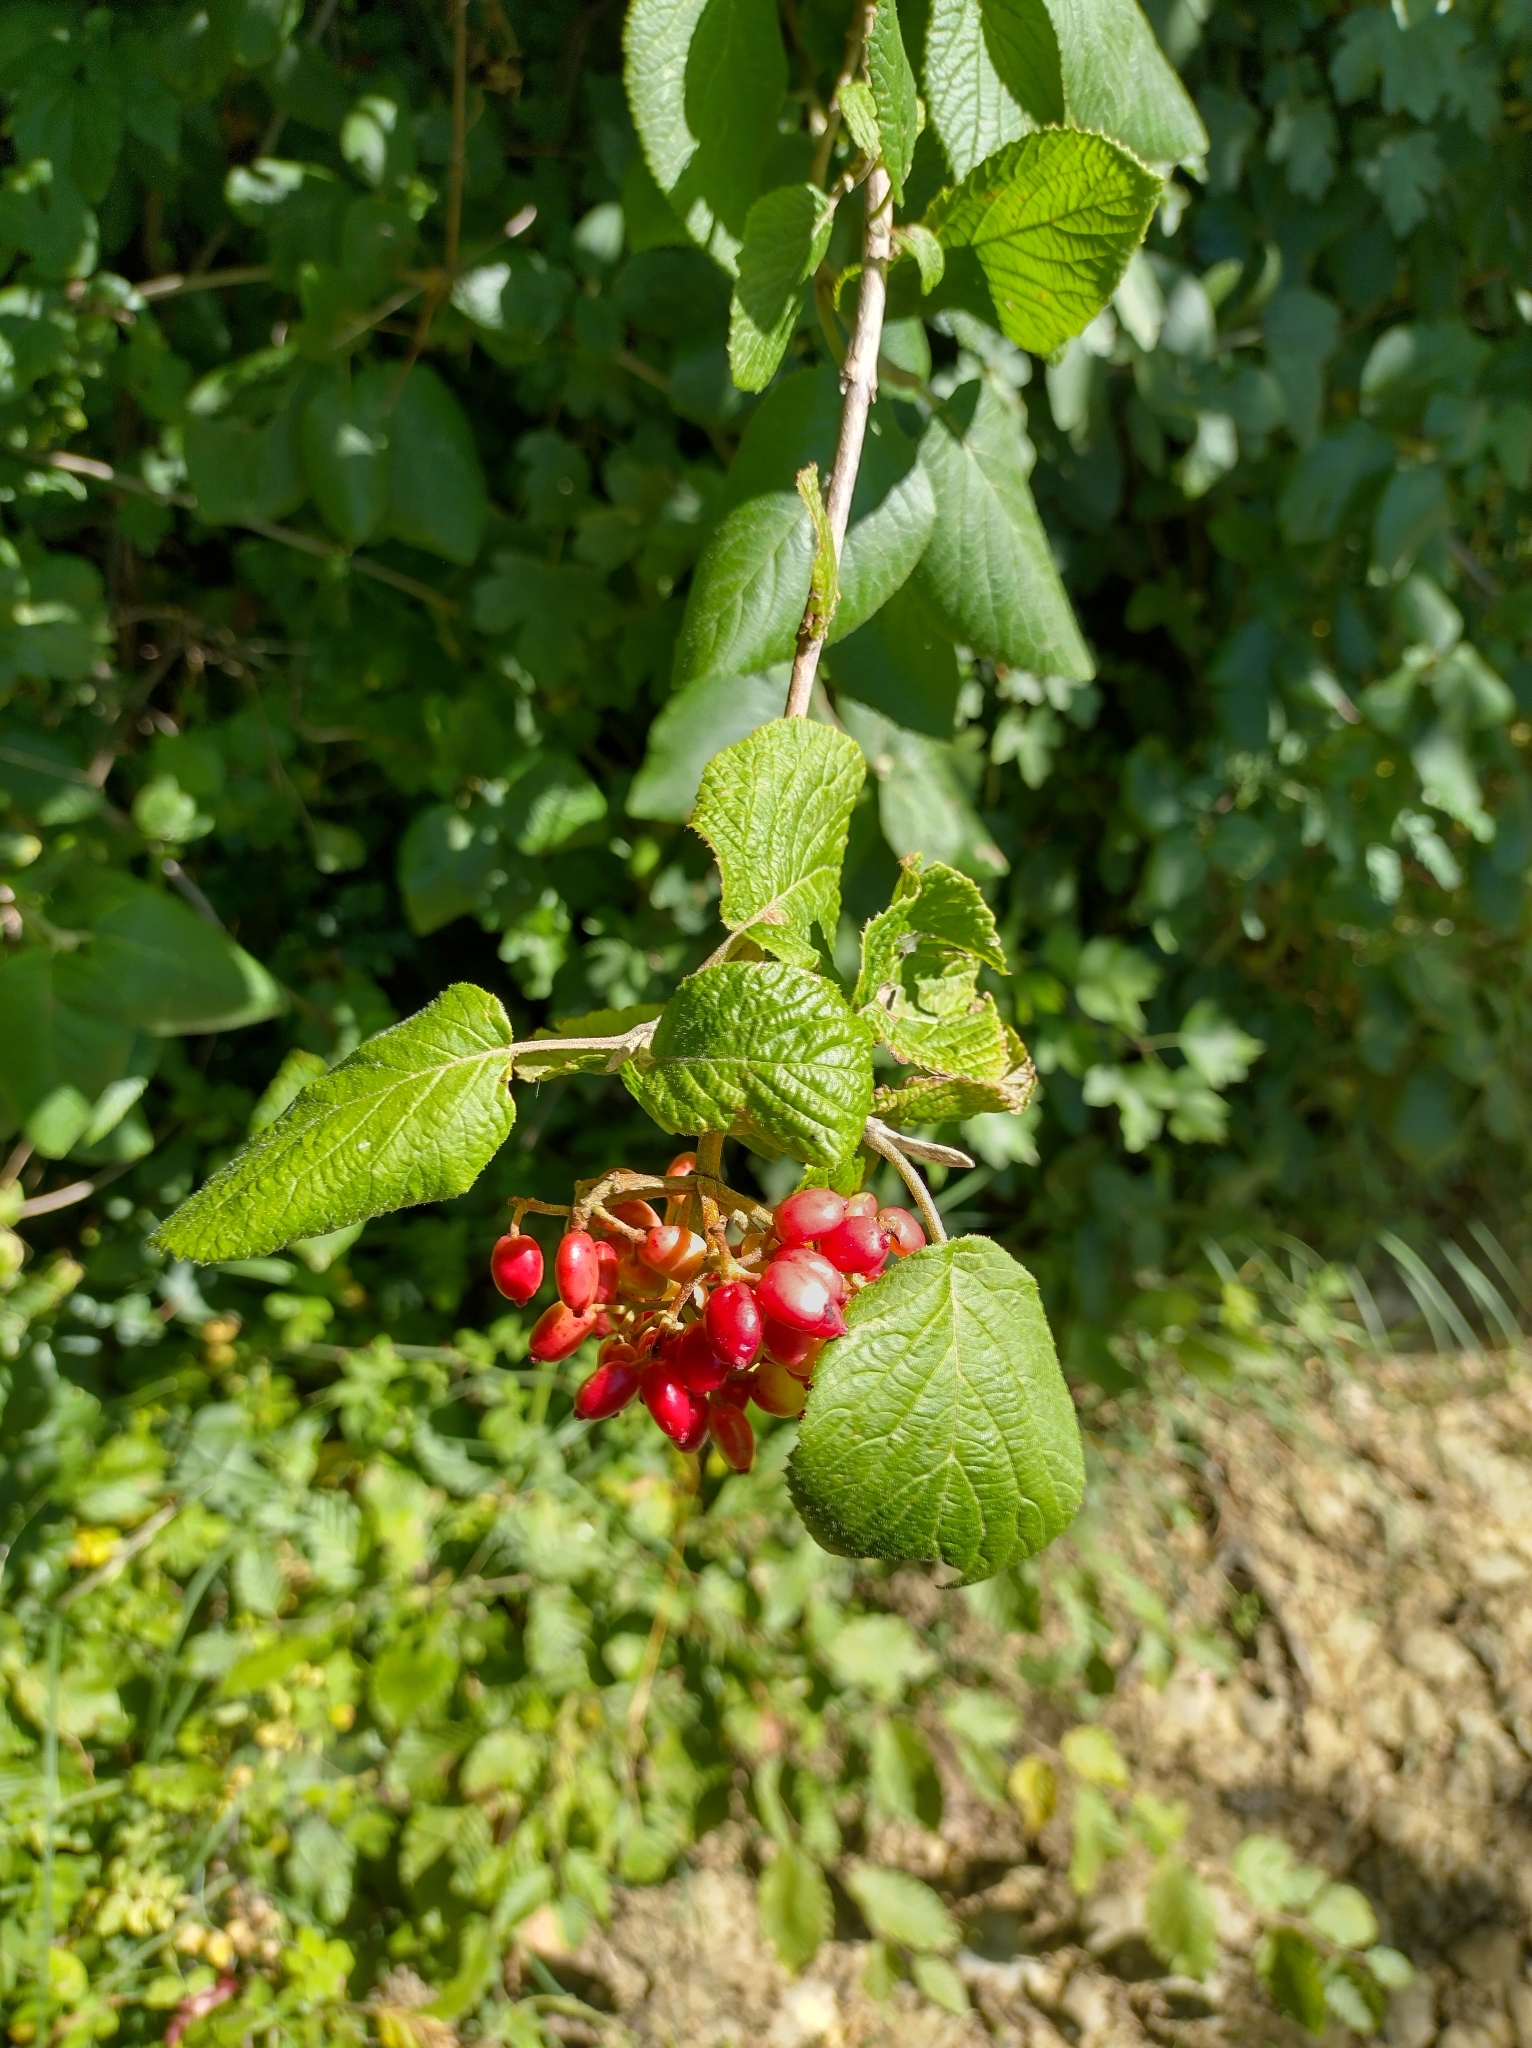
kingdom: Plantae
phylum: Tracheophyta
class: Magnoliopsida
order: Dipsacales
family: Viburnaceae
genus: Viburnum
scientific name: Viburnum lantana
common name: Wayfaring tree
